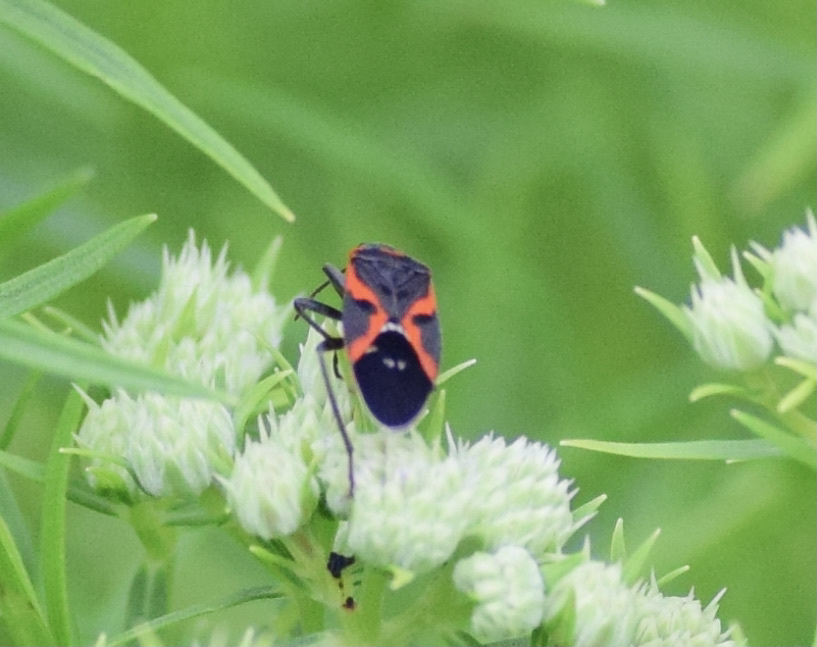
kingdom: Animalia
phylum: Arthropoda
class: Insecta
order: Hemiptera
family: Lygaeidae
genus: Lygaeus
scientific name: Lygaeus kalmii
